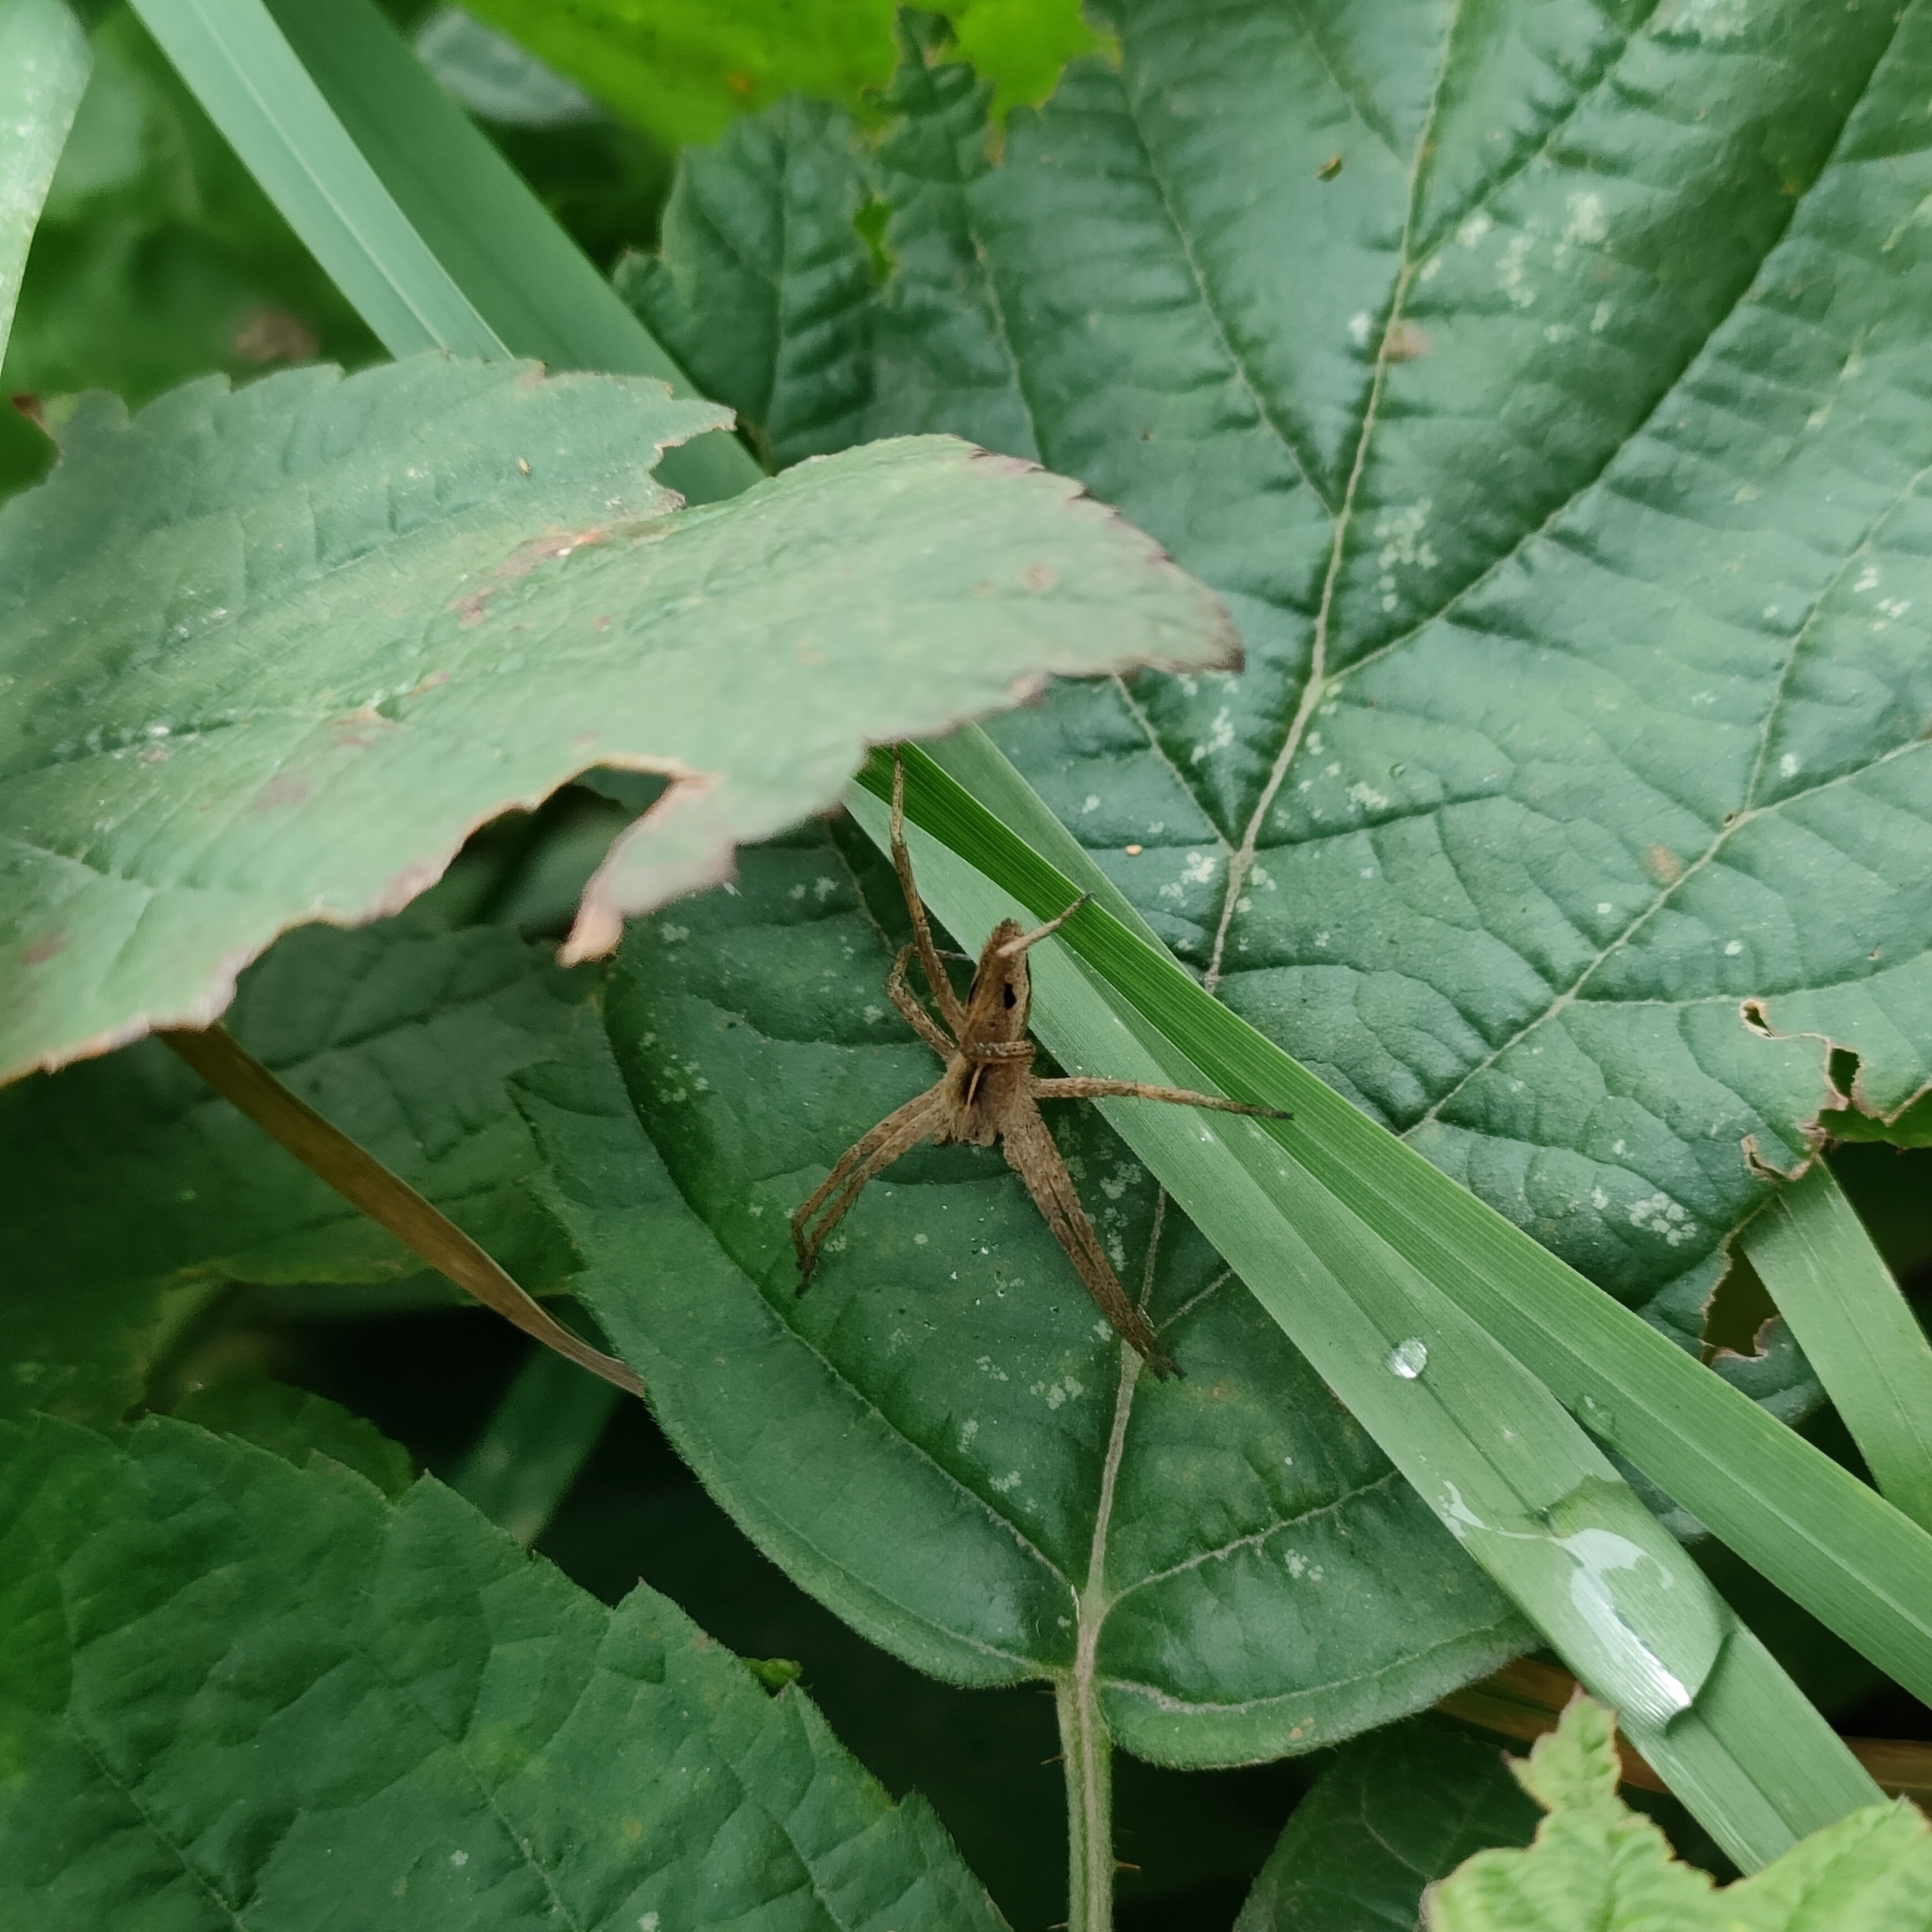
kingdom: Animalia
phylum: Arthropoda
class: Arachnida
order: Araneae
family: Pisauridae
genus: Pisaura
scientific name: Pisaura mirabilis
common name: Tent spider
